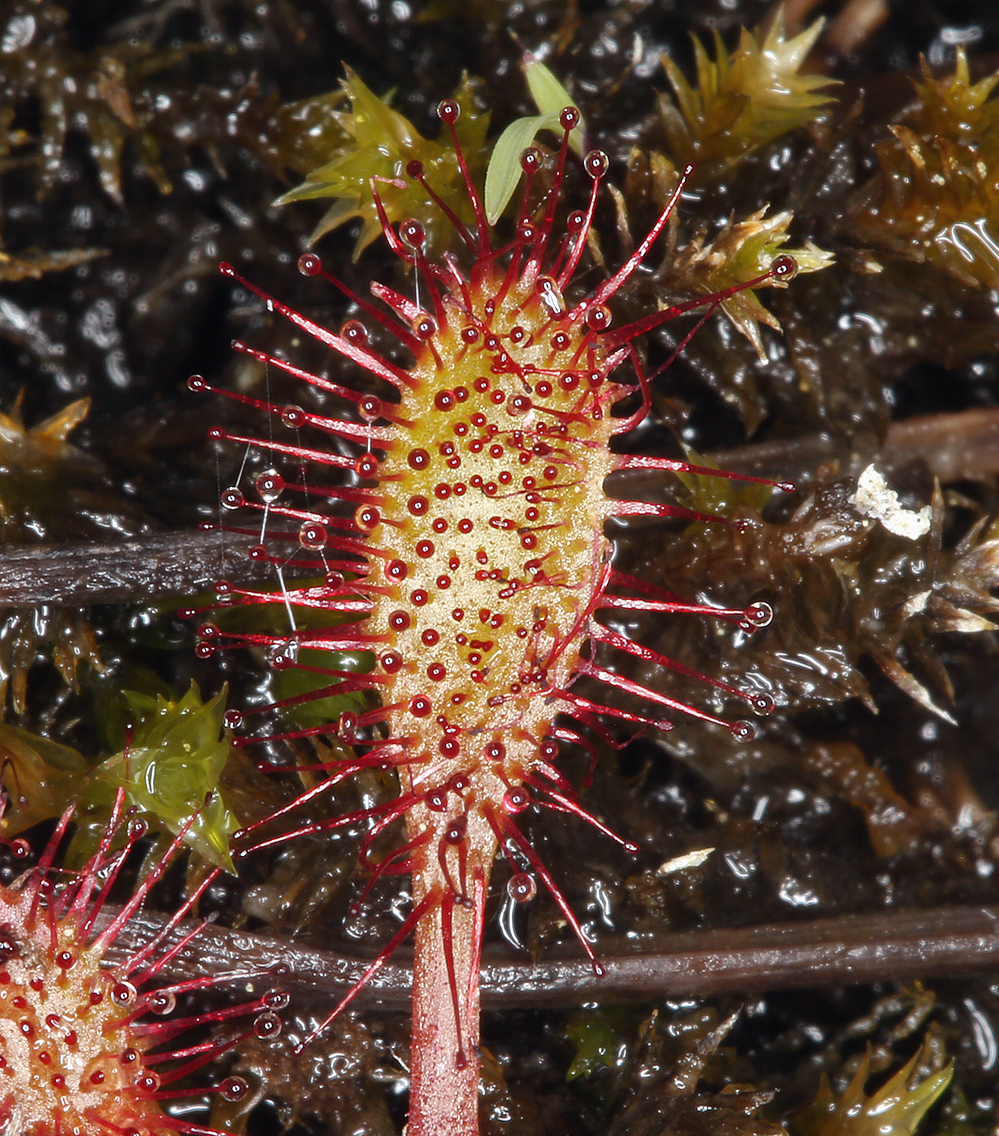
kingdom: Plantae
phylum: Tracheophyta
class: Magnoliopsida
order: Caryophyllales
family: Droseraceae
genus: Drosera
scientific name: Drosera anglica
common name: Great sundew
